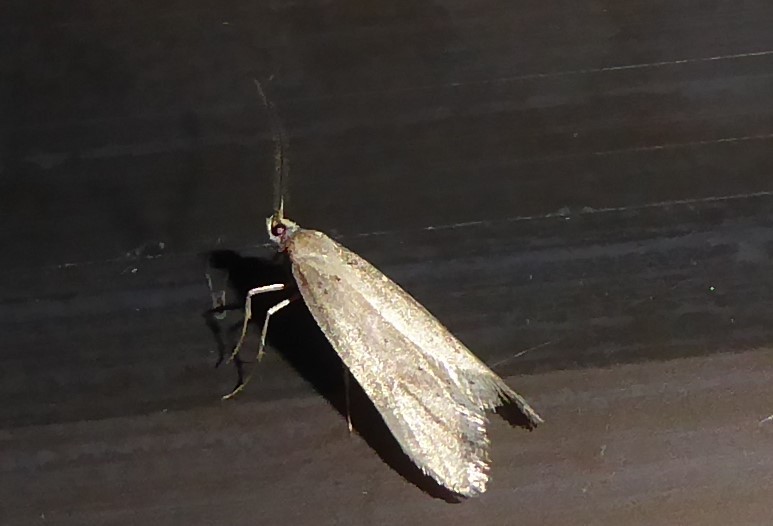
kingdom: Animalia
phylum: Arthropoda
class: Insecta
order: Lepidoptera
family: Oecophoridae
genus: Atomotricha
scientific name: Atomotricha chloronota
